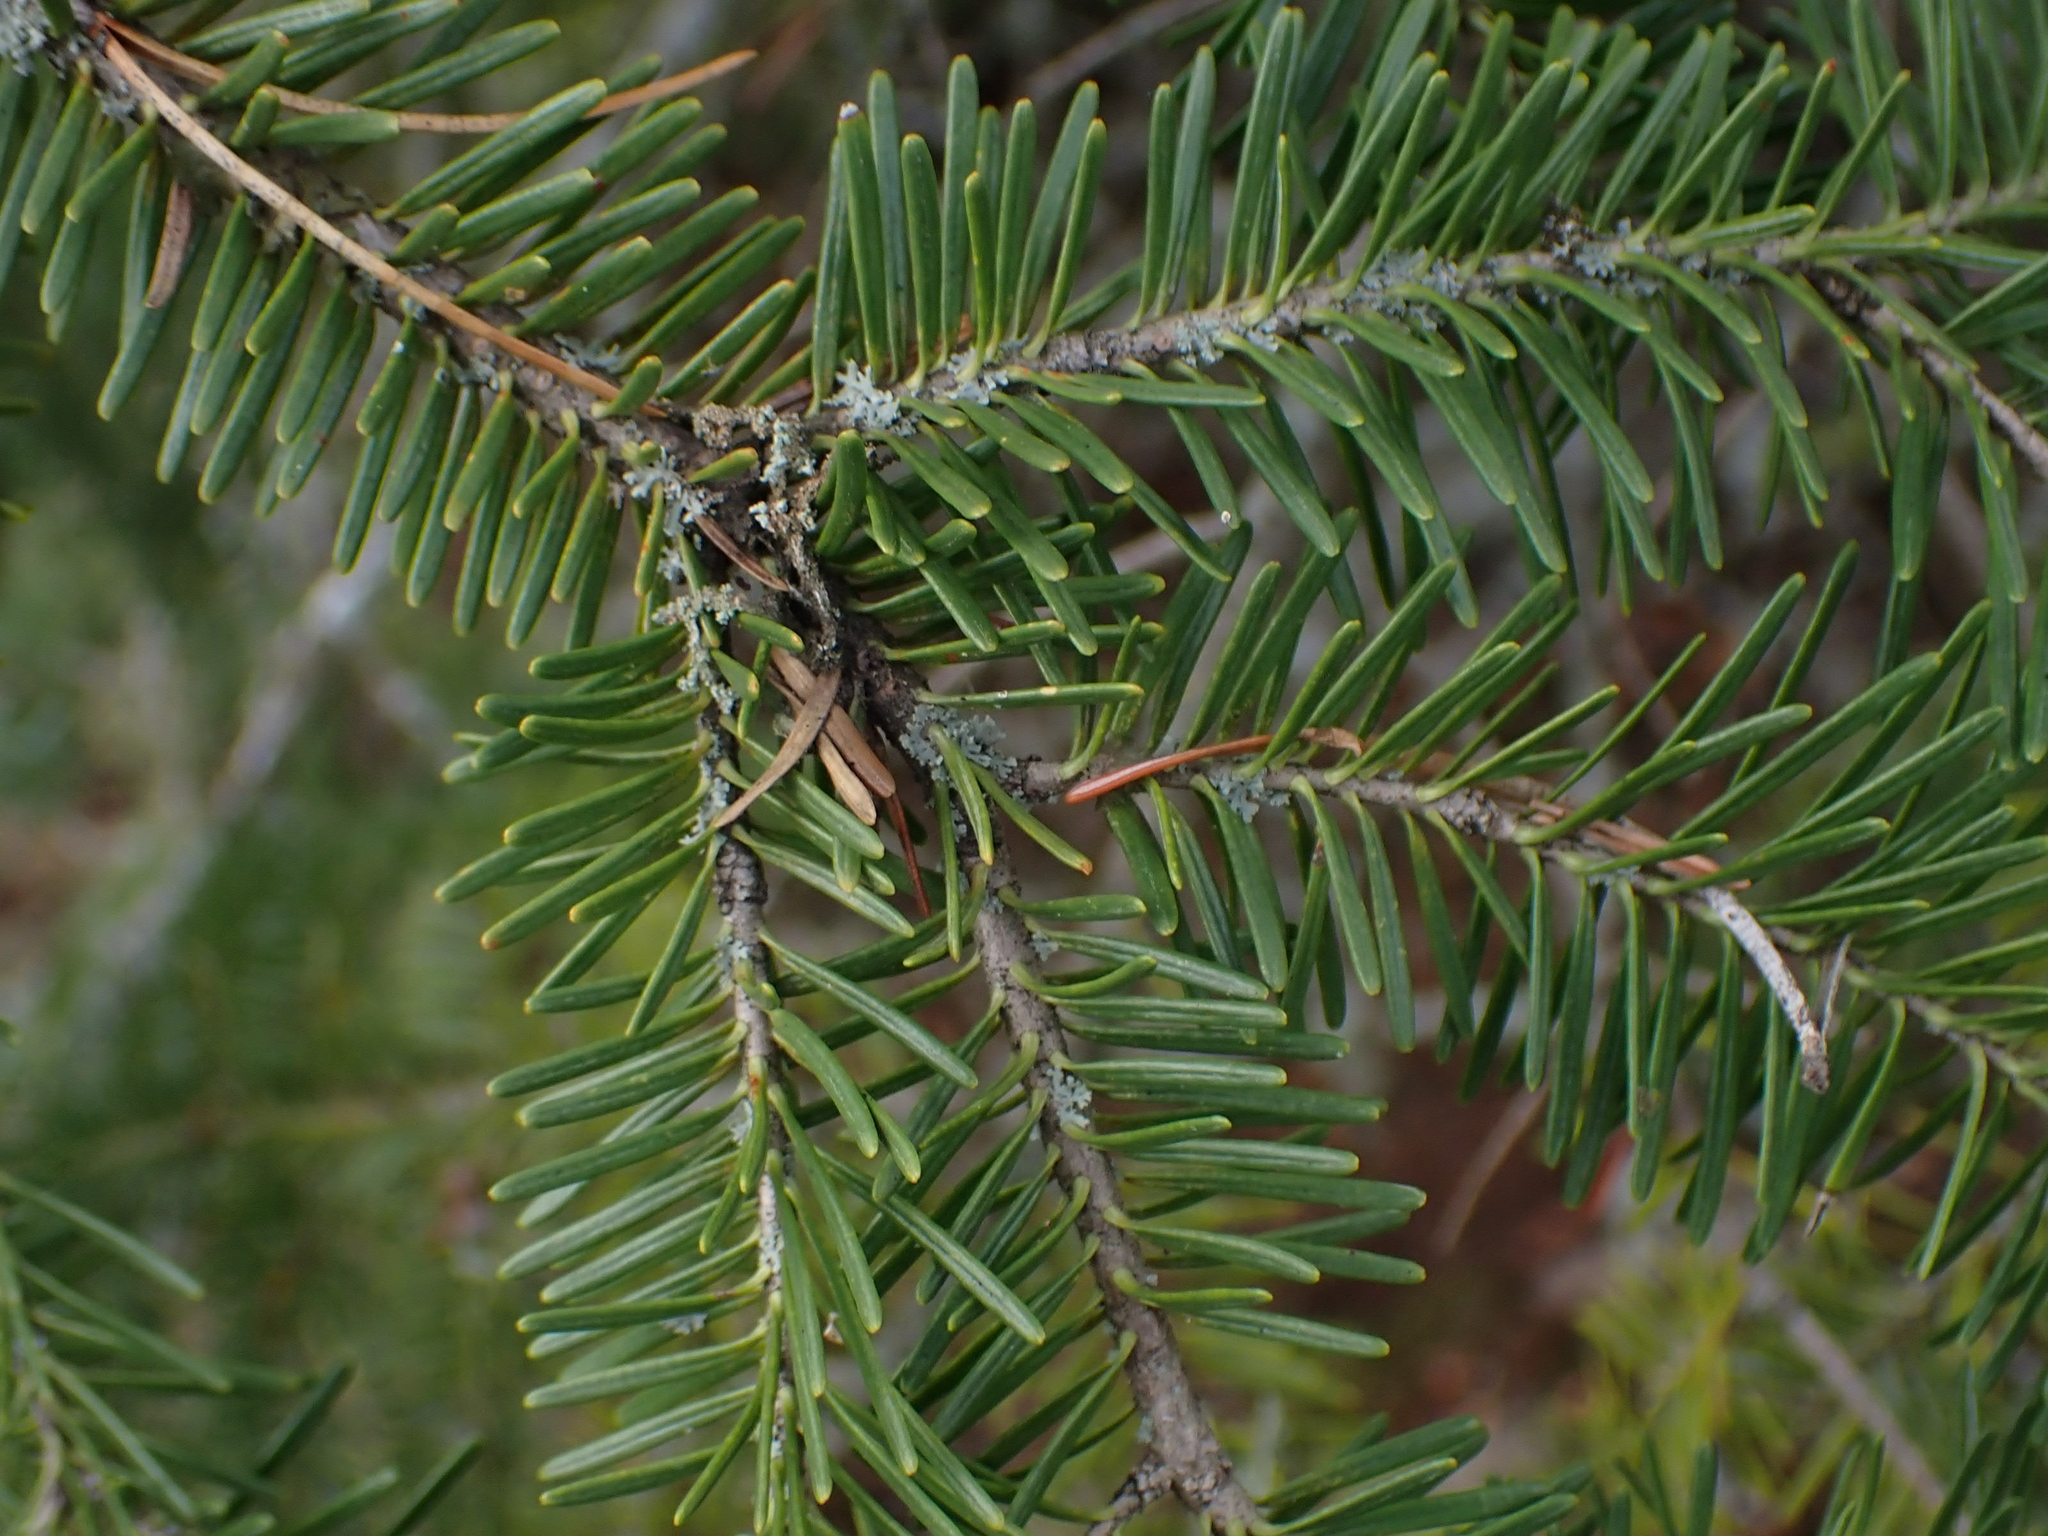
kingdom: Plantae
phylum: Tracheophyta
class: Pinopsida
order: Pinales
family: Pinaceae
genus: Abies
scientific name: Abies balsamea
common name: Balsam fir
